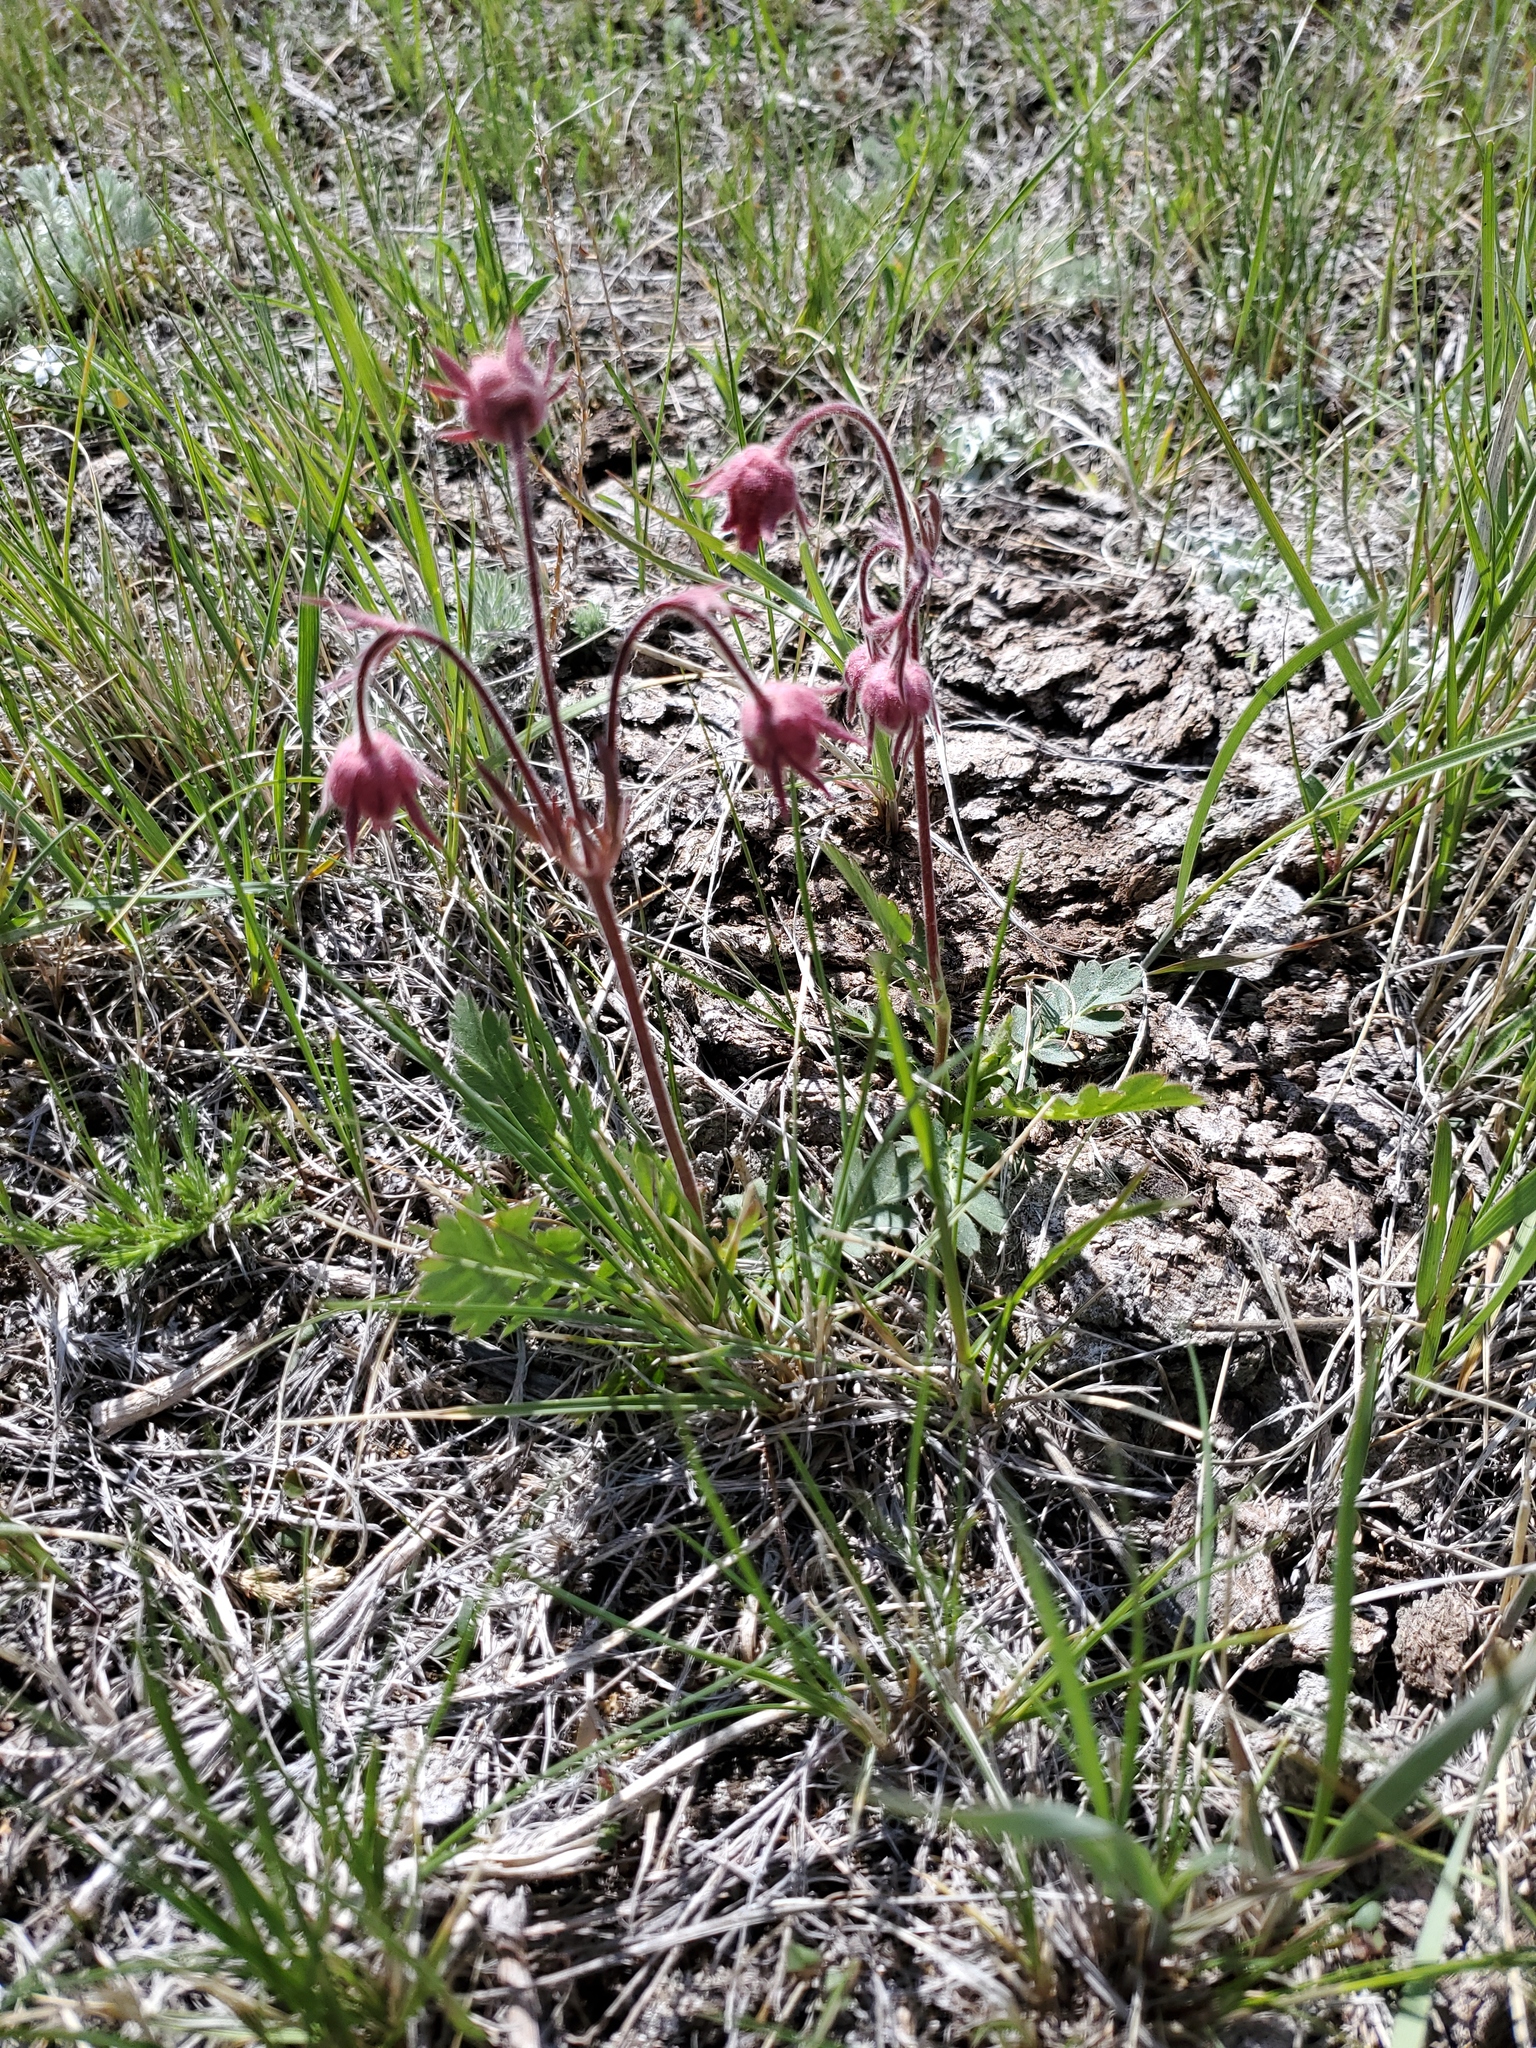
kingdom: Plantae
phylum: Tracheophyta
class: Magnoliopsida
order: Rosales
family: Rosaceae
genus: Geum
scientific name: Geum triflorum
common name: Old man's whiskers
